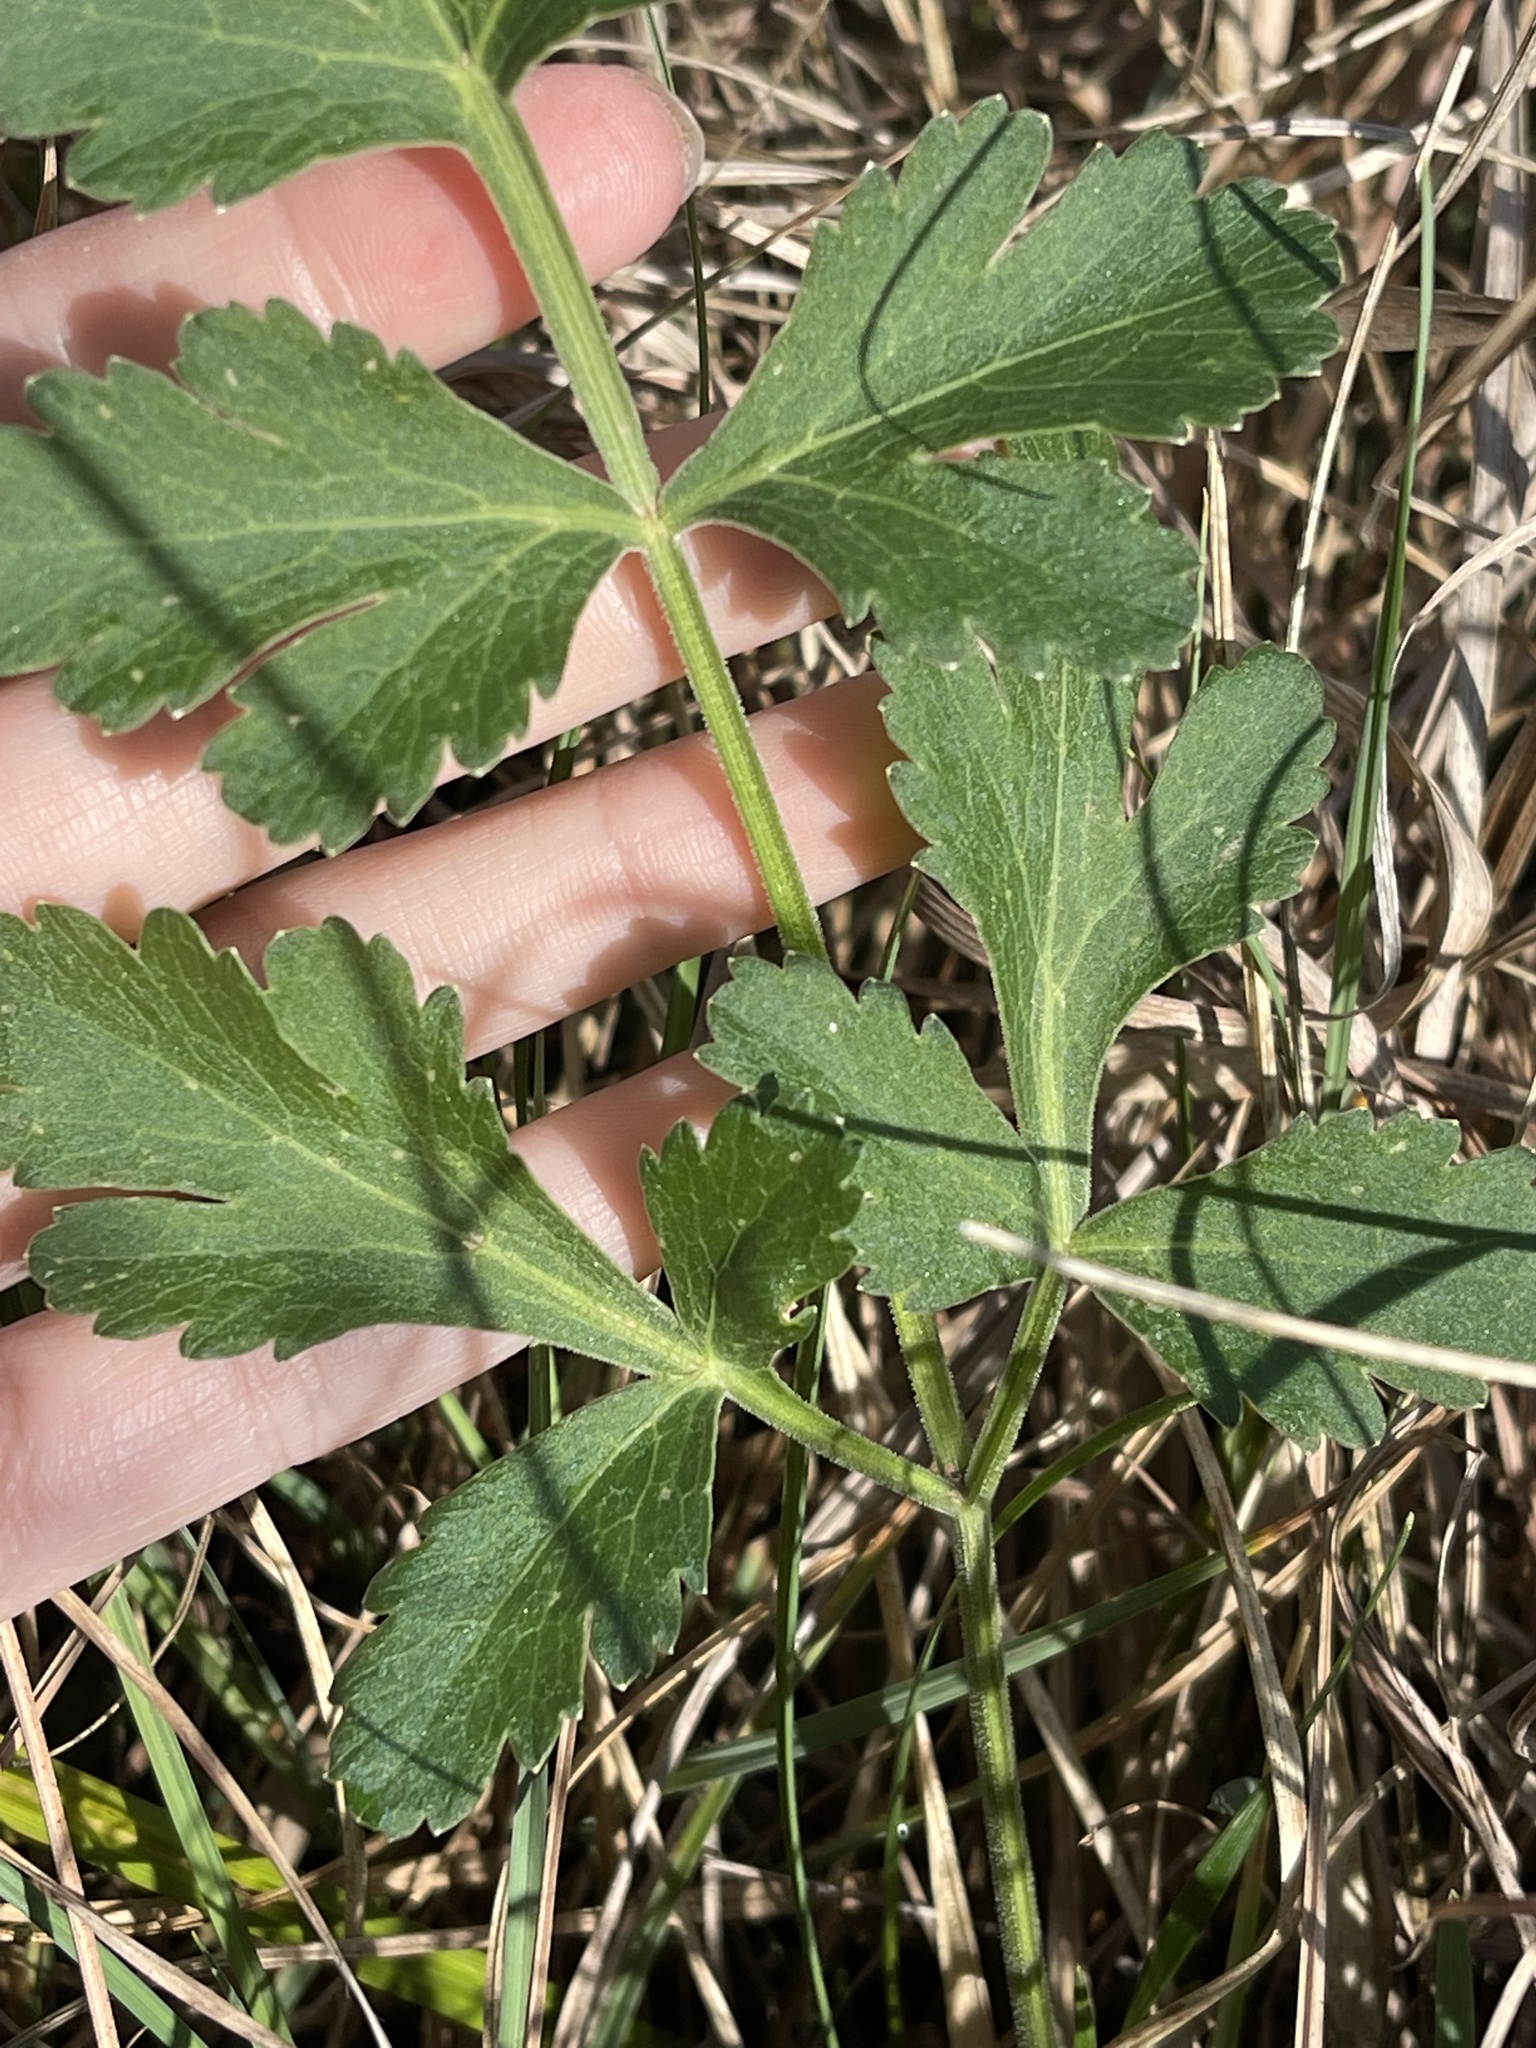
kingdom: Plantae
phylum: Tracheophyta
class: Magnoliopsida
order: Apiales
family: Apiaceae
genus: Polytaenia
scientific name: Polytaenia texana
